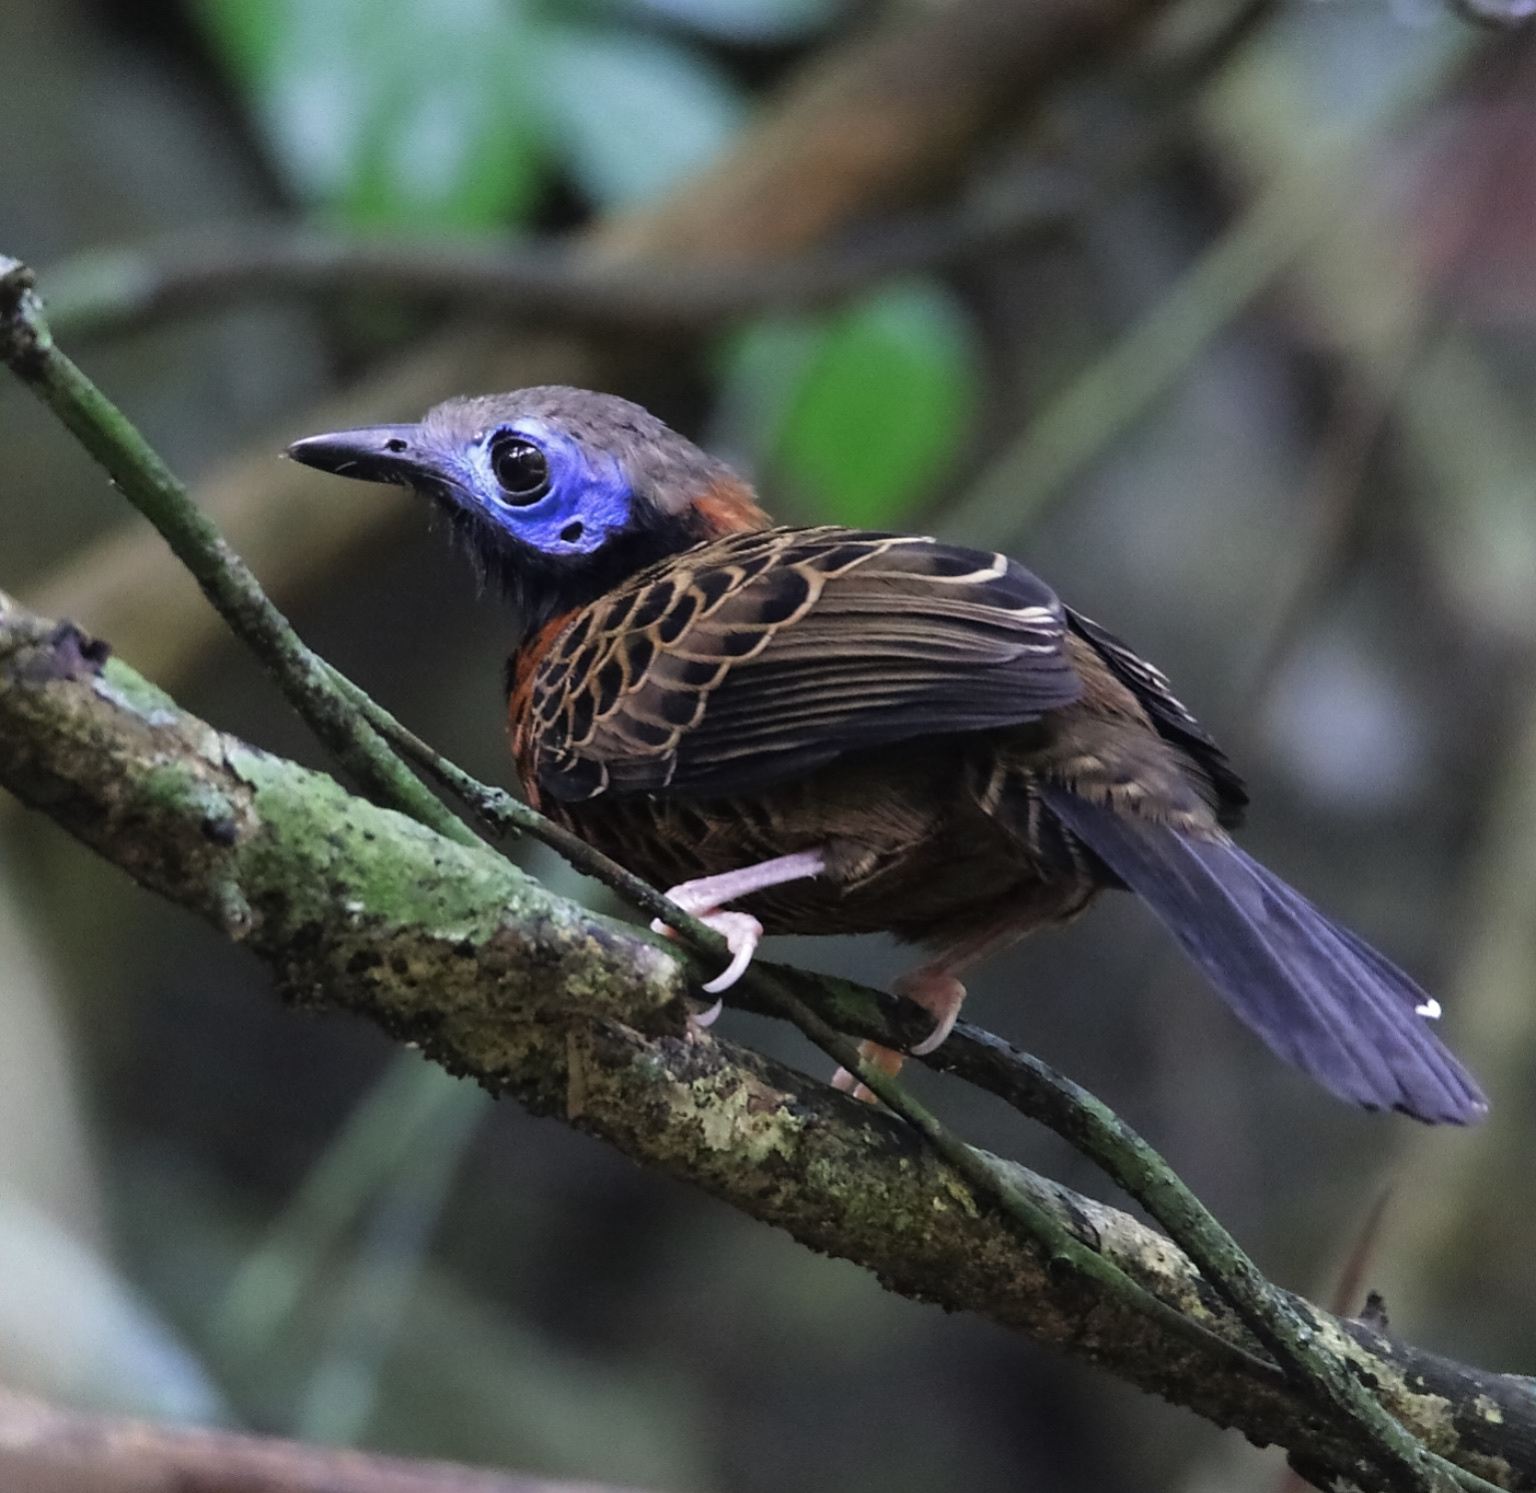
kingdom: Animalia
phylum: Chordata
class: Aves
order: Passeriformes
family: Thamnophilidae
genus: Phaenostictus
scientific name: Phaenostictus mcleannani
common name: Ocellated antbird
